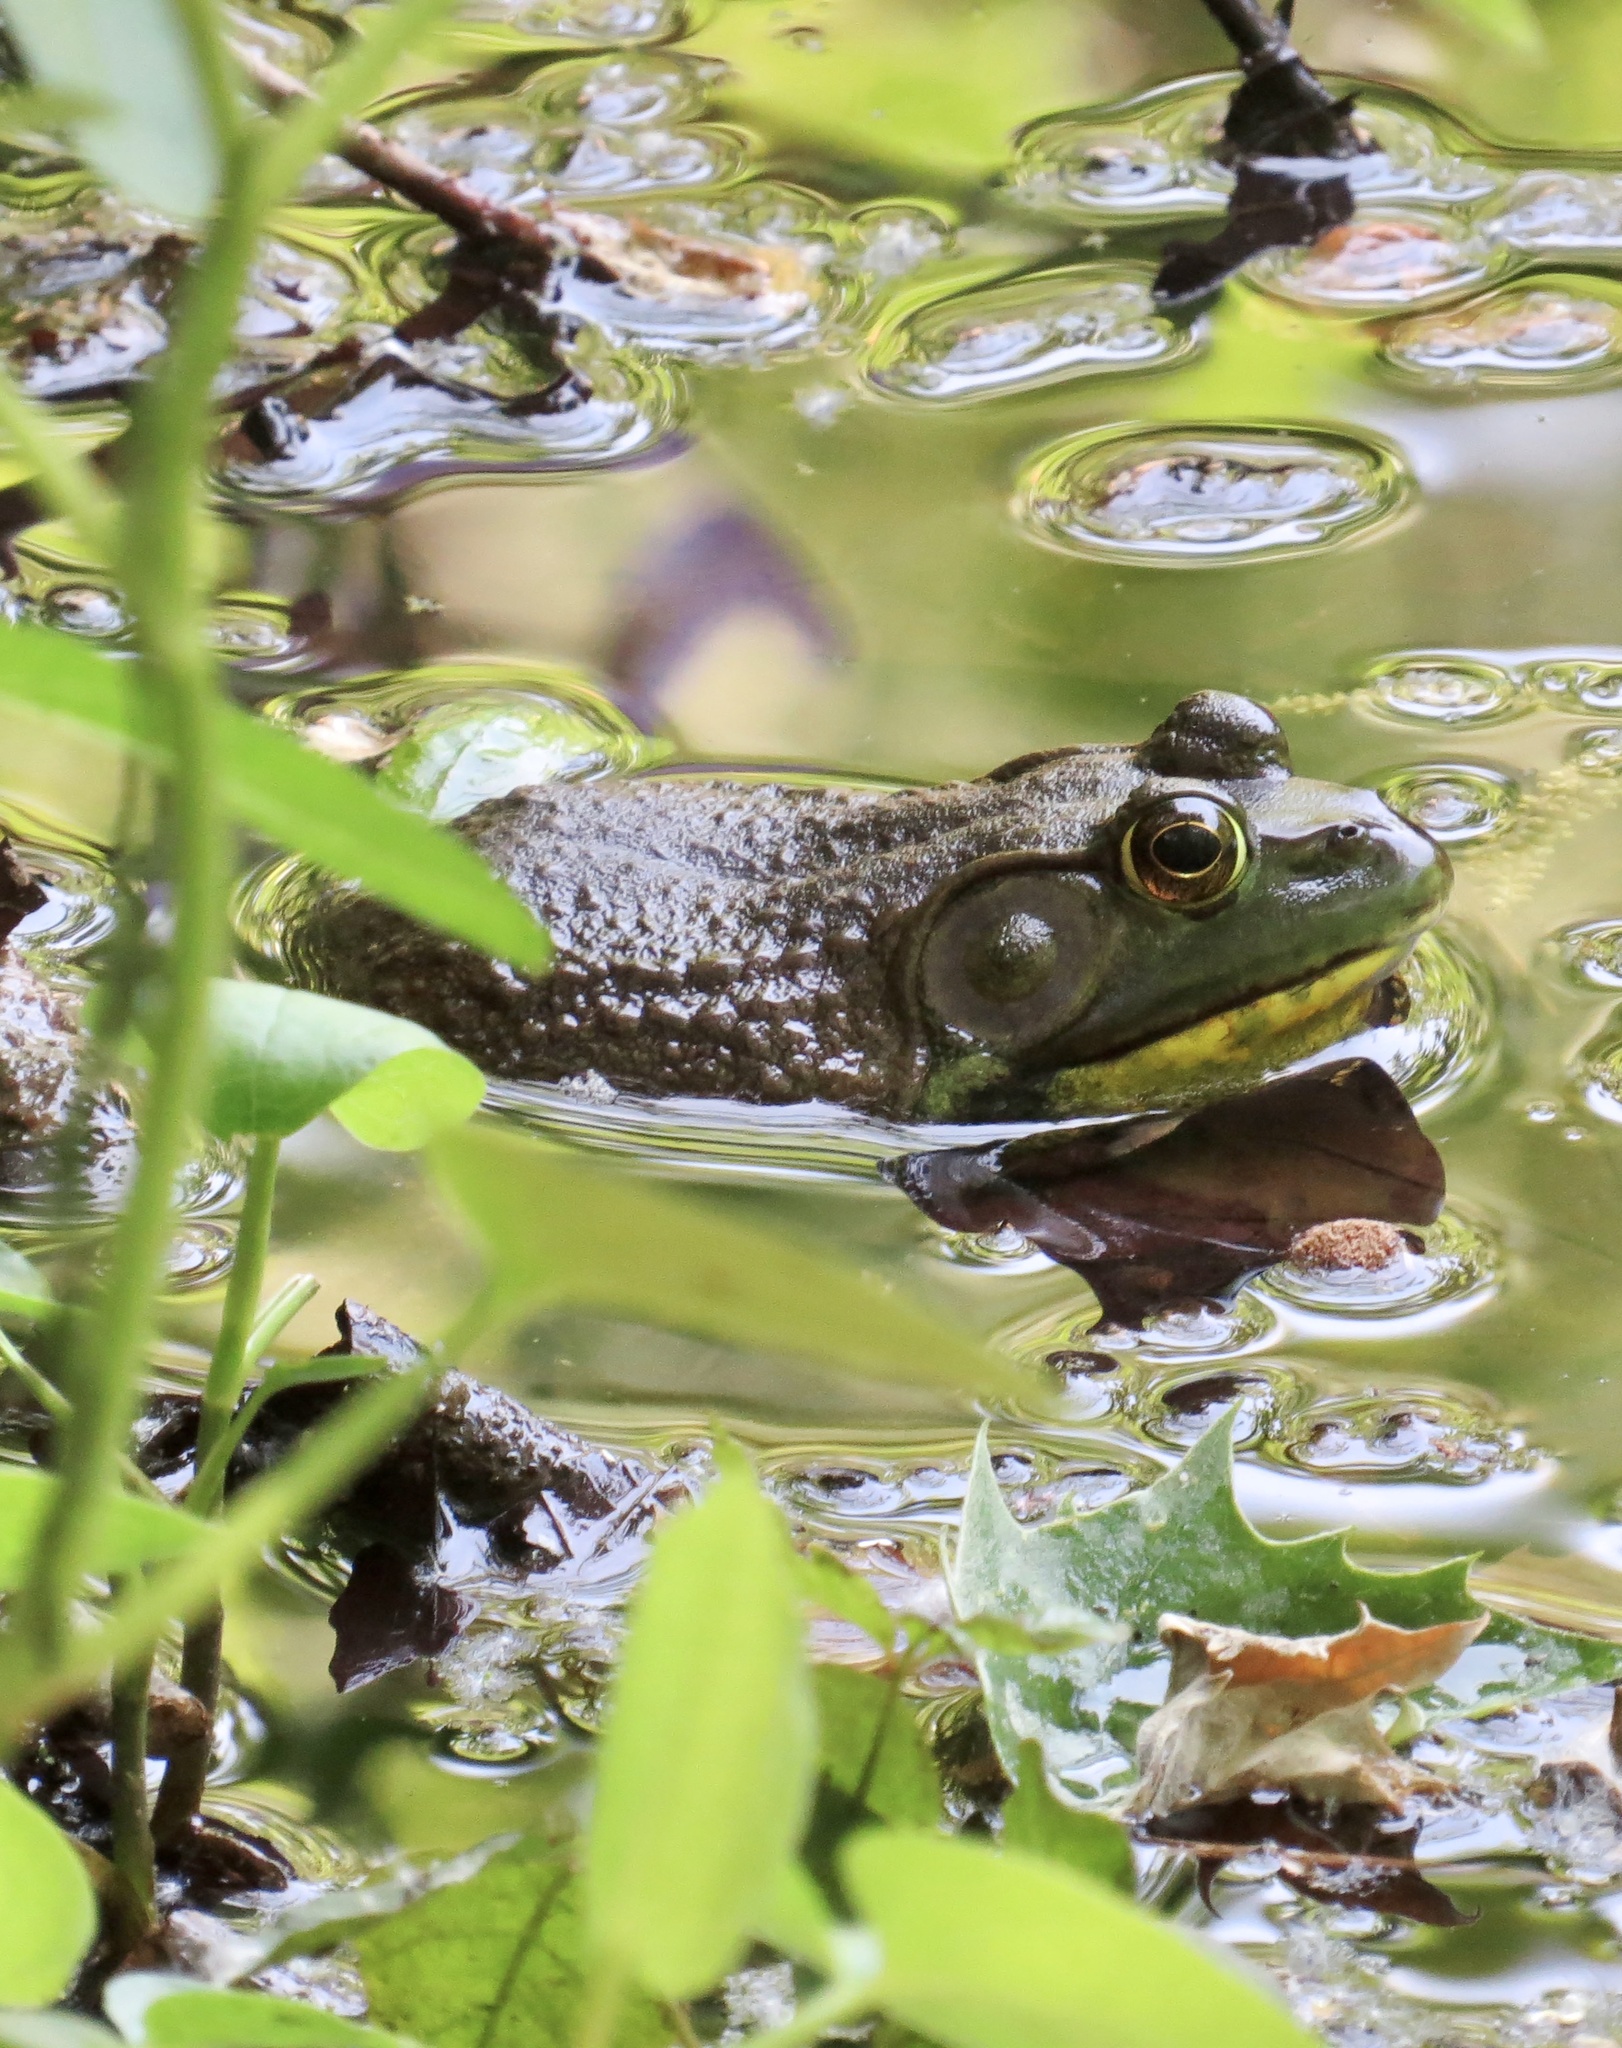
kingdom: Animalia
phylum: Chordata
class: Amphibia
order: Anura
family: Ranidae
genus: Lithobates
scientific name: Lithobates catesbeianus
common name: American bullfrog
